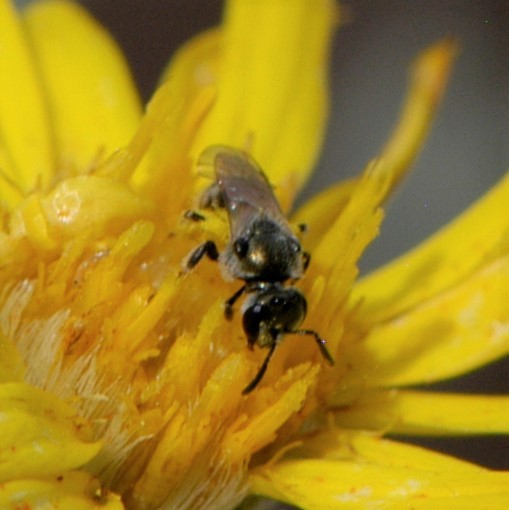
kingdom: Animalia
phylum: Arthropoda
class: Insecta
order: Hymenoptera
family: Halictidae
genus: Dialictus
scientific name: Dialictus
